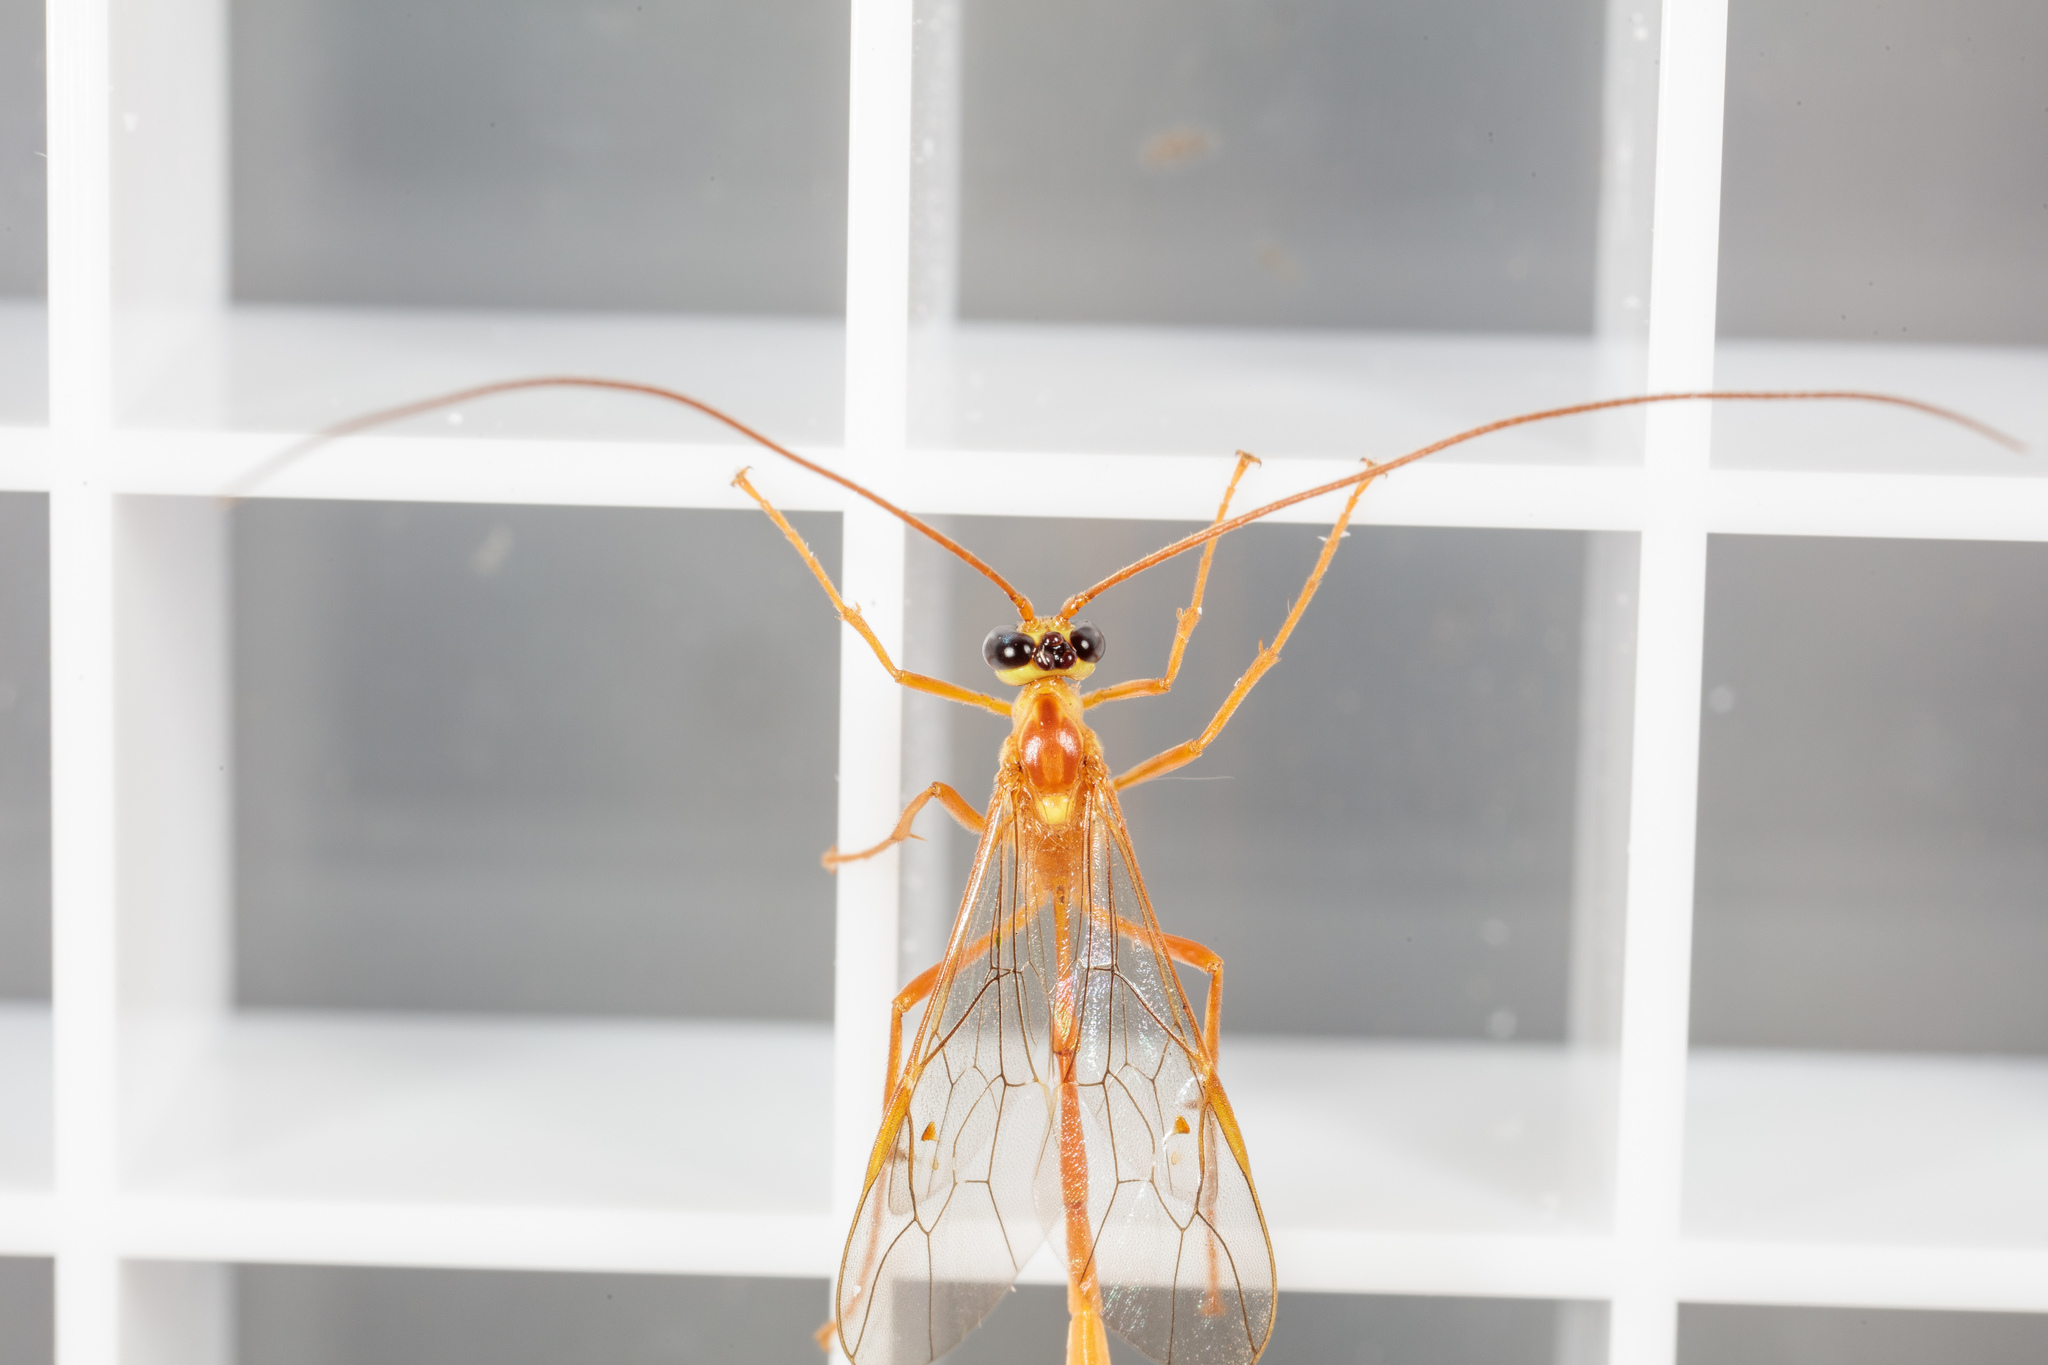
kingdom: Animalia
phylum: Arthropoda
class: Insecta
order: Hymenoptera
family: Ichneumonidae
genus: Enicospilus
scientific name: Enicospilus flavostigma
